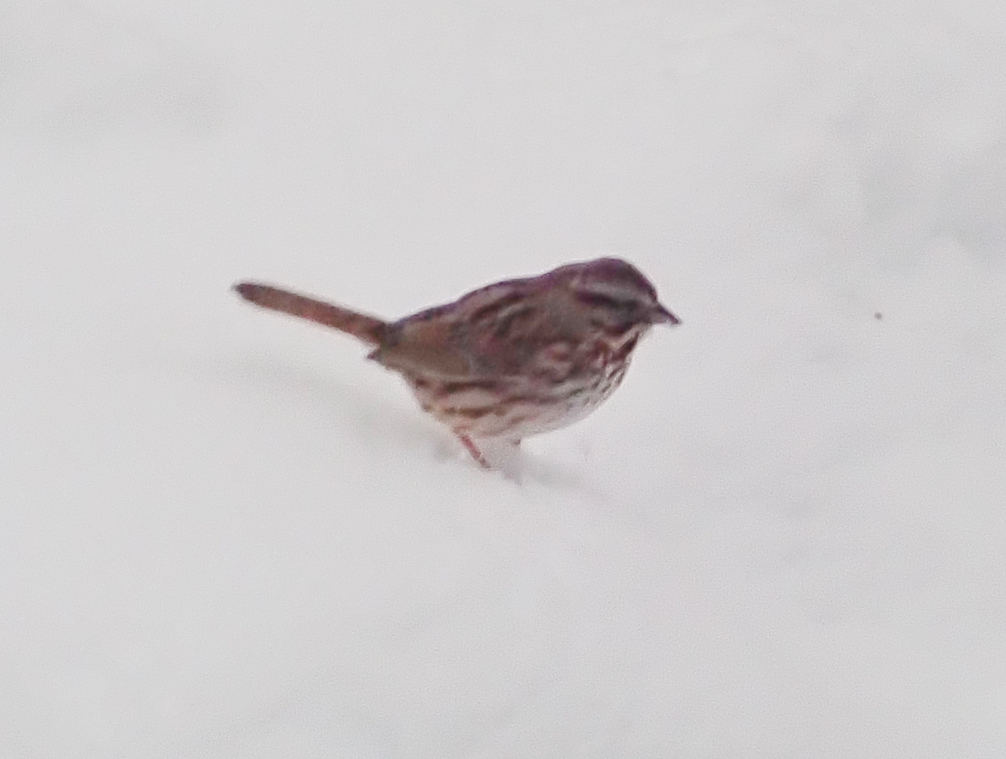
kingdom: Animalia
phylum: Chordata
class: Aves
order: Passeriformes
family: Passerellidae
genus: Melospiza
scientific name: Melospiza melodia
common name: Song sparrow
